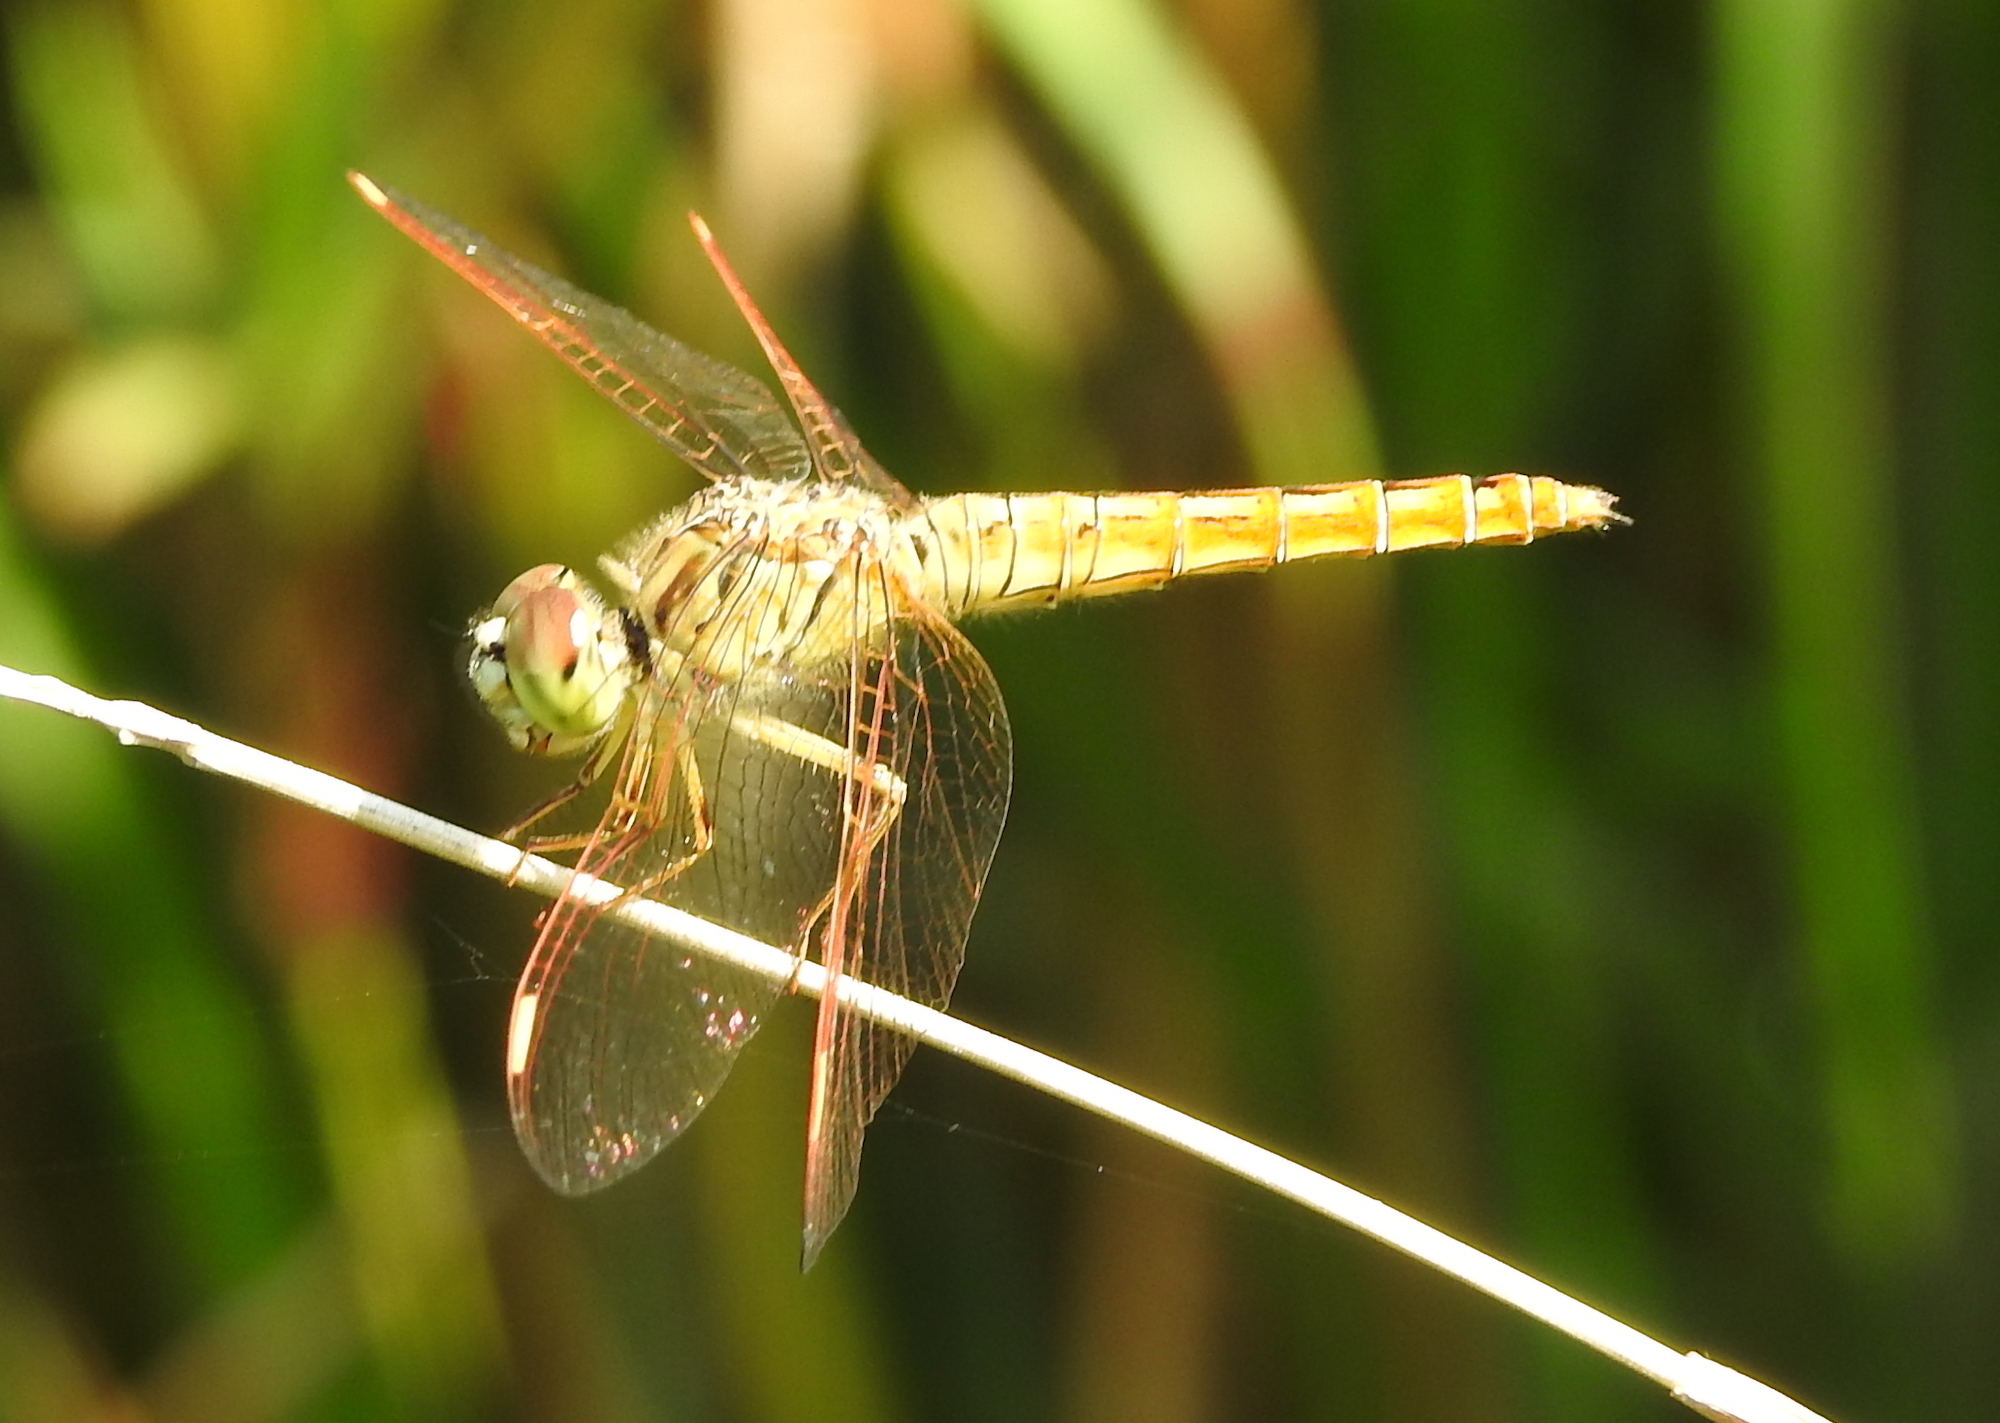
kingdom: Animalia
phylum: Arthropoda
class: Insecta
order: Odonata
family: Libellulidae
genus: Brachythemis
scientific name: Brachythemis contaminata
